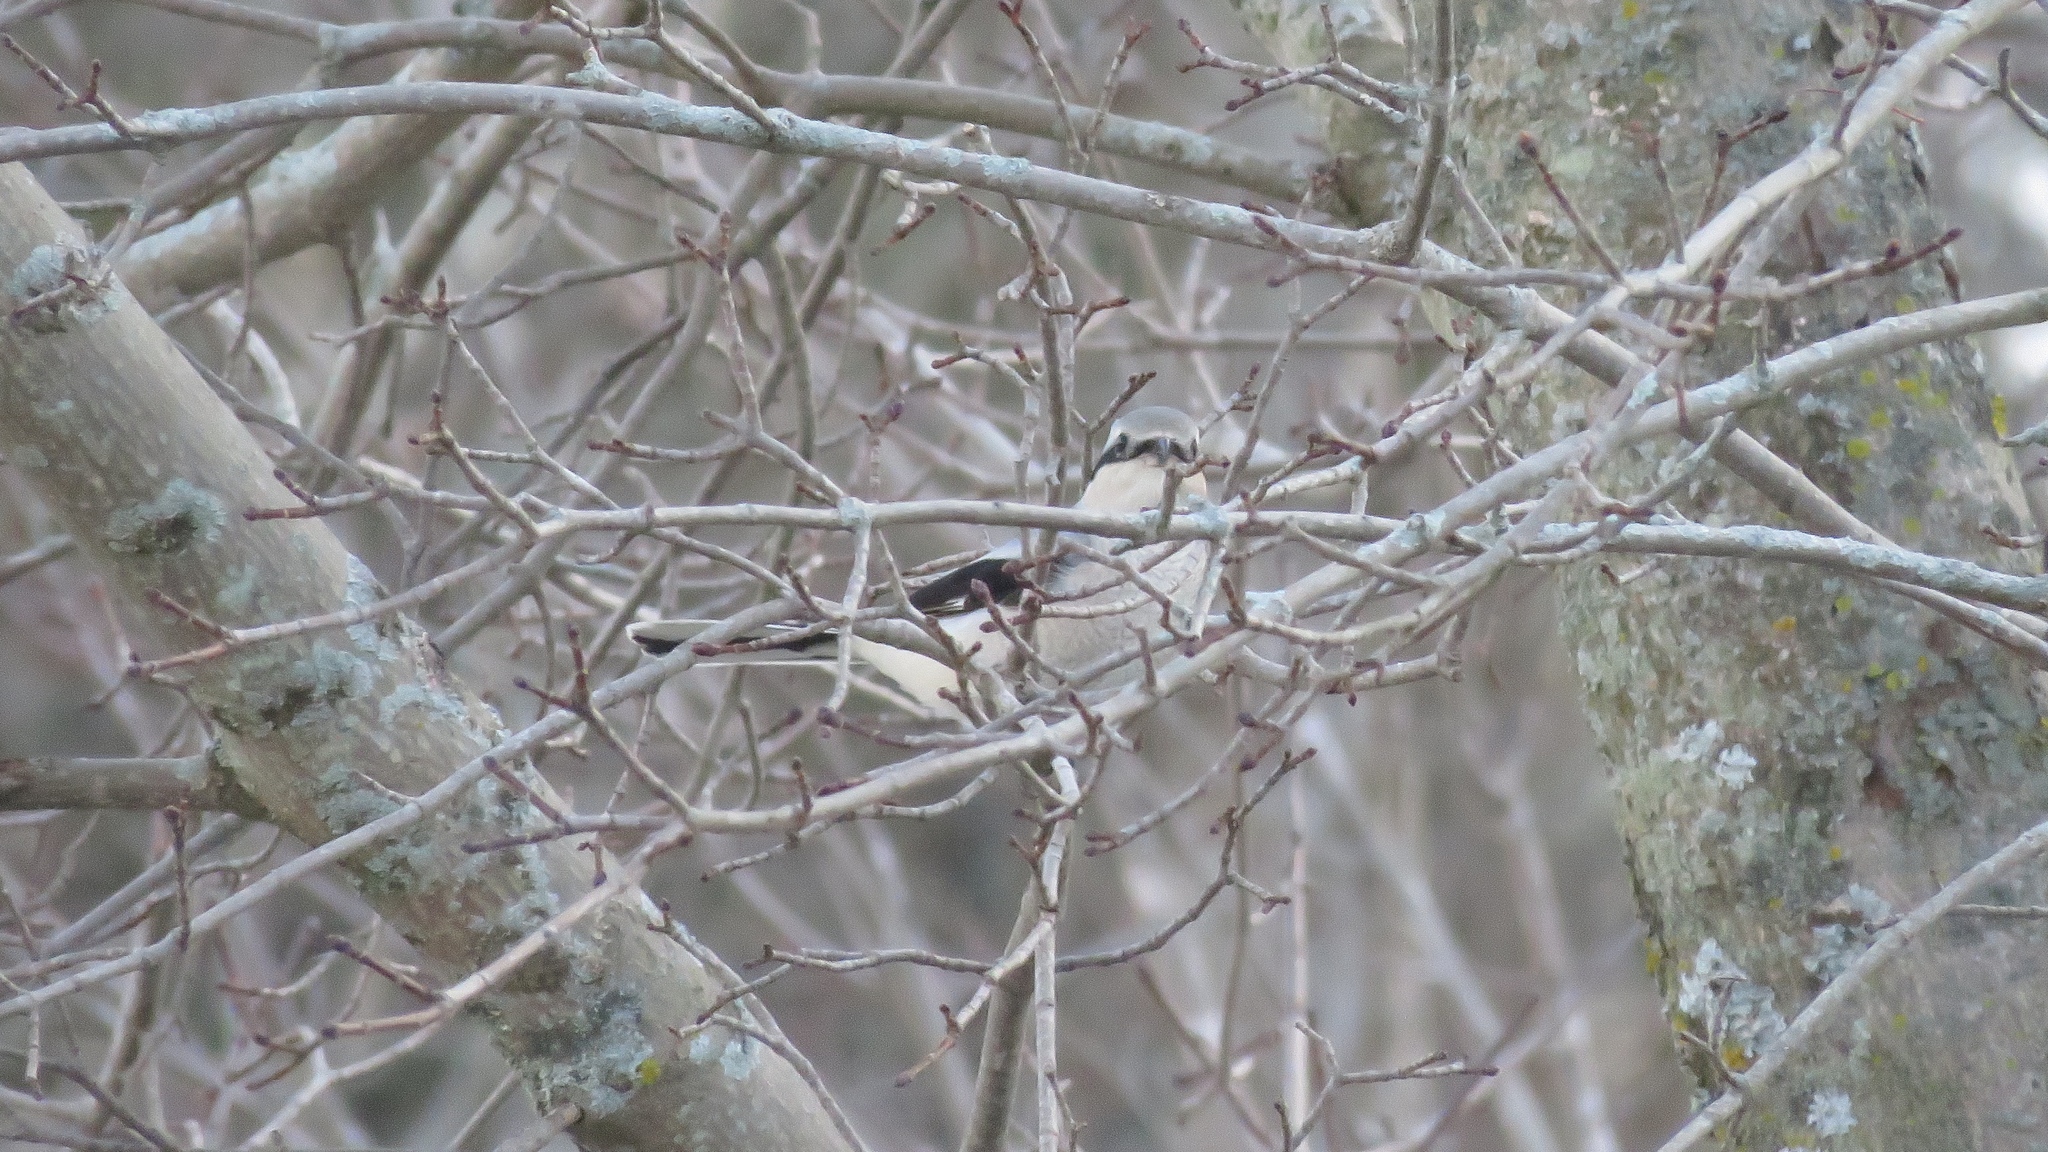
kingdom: Animalia
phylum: Chordata
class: Aves
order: Passeriformes
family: Laniidae
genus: Lanius
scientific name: Lanius borealis
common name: Northern shrike
